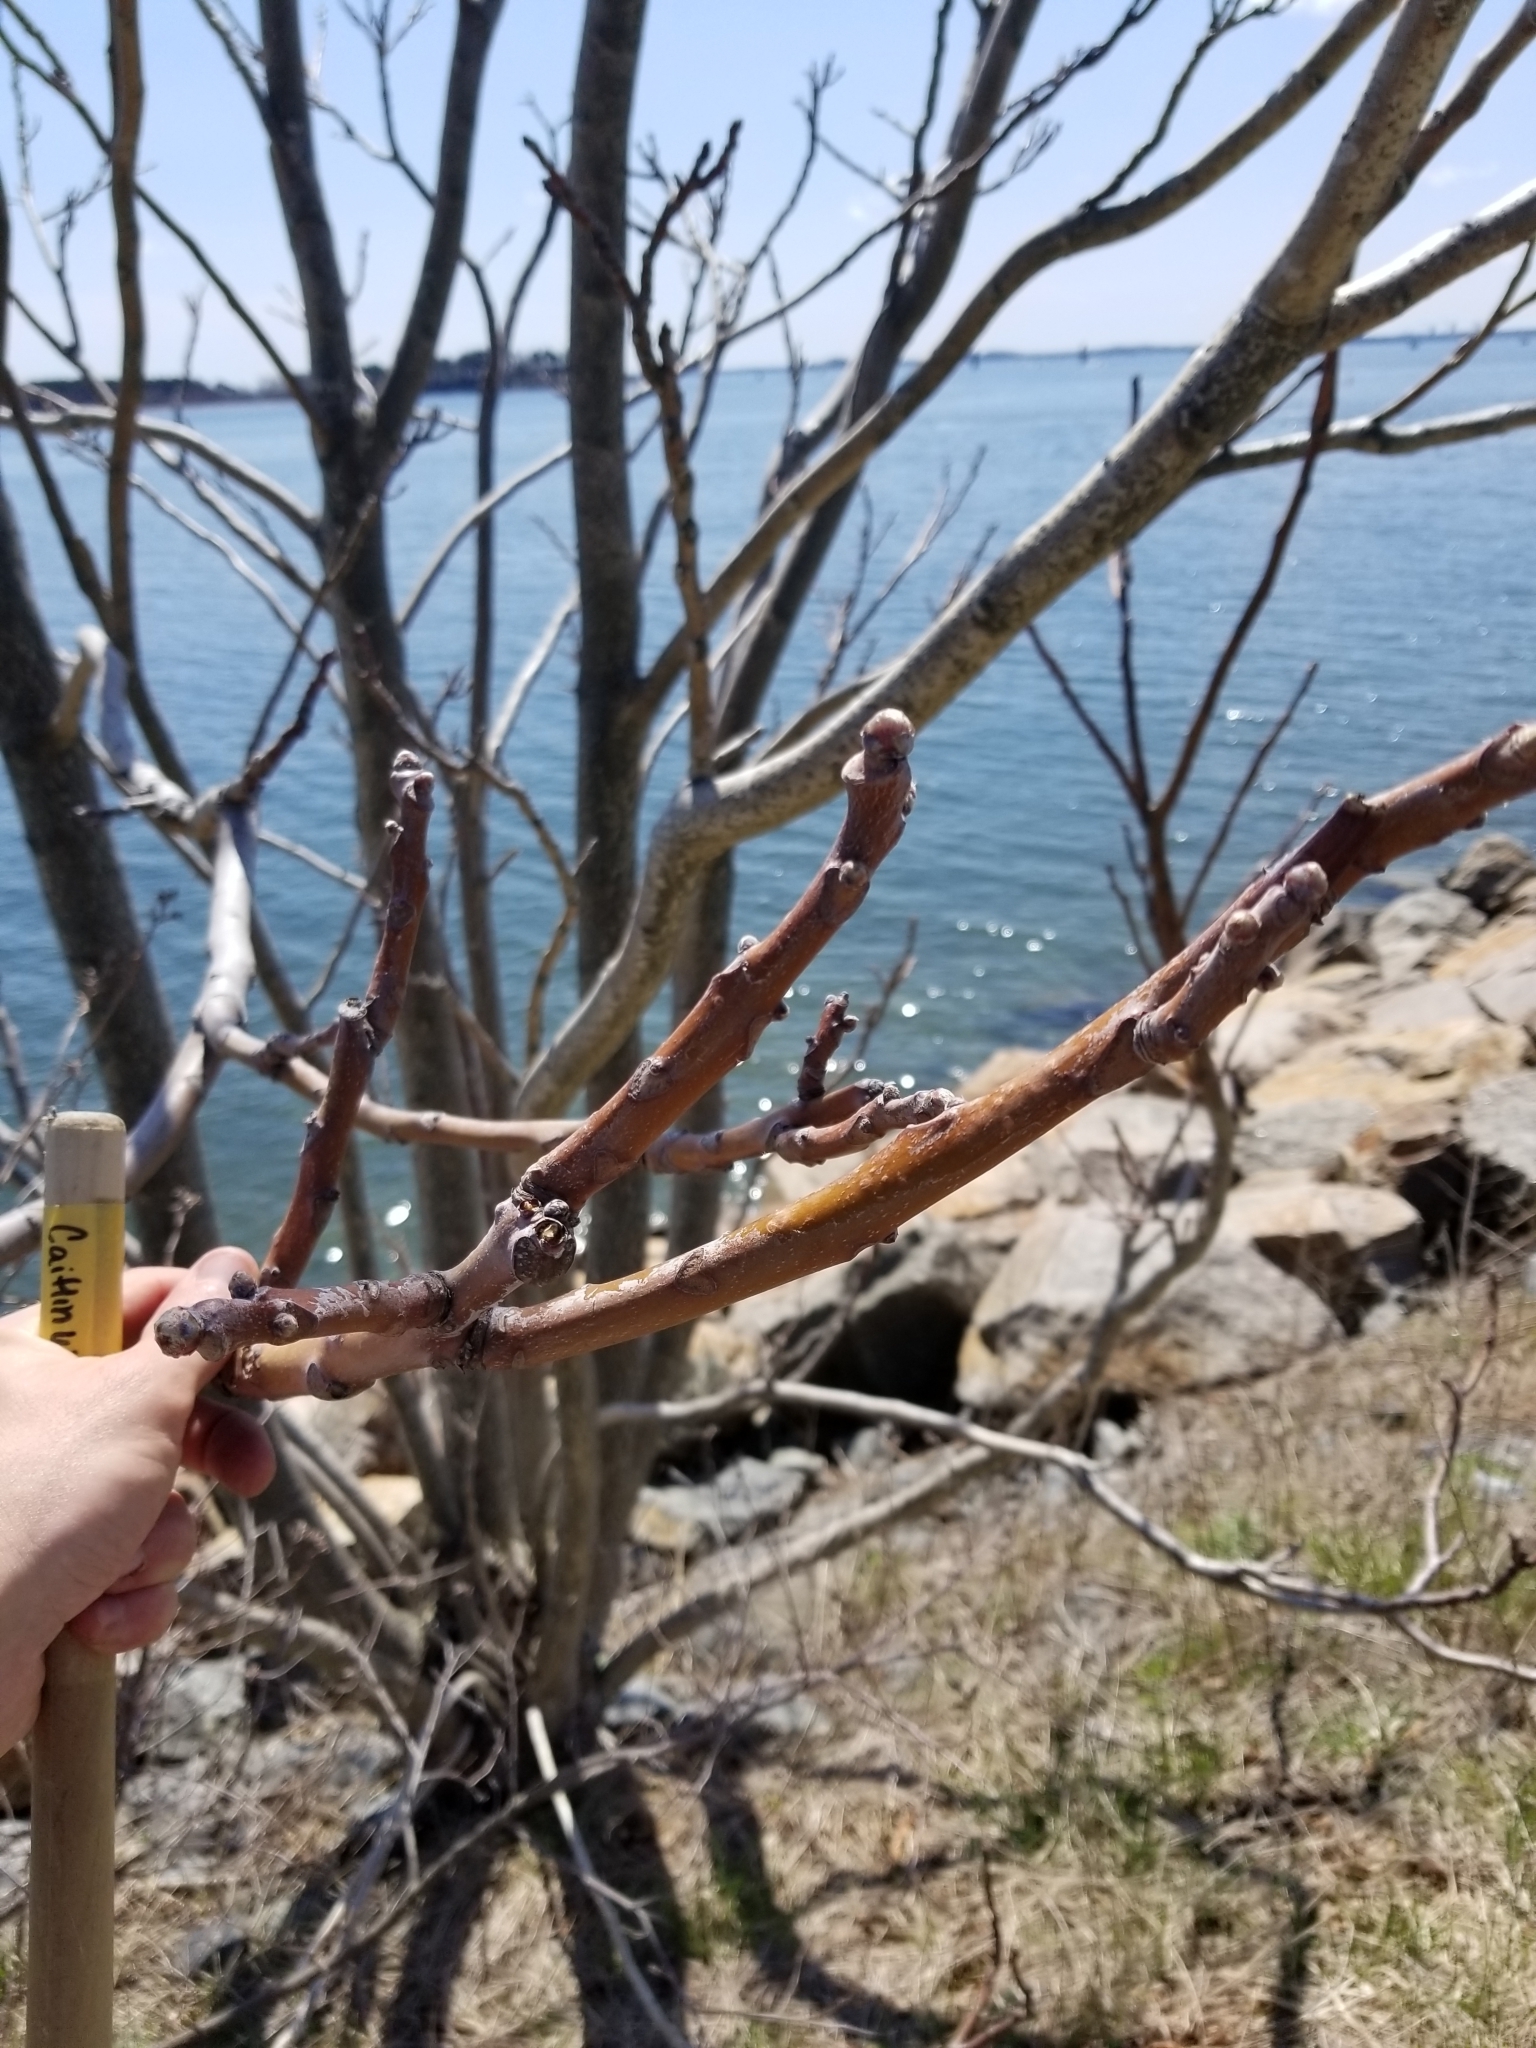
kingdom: Plantae
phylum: Tracheophyta
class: Magnoliopsida
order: Sapindales
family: Simaroubaceae
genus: Ailanthus
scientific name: Ailanthus altissima
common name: Tree-of-heaven
